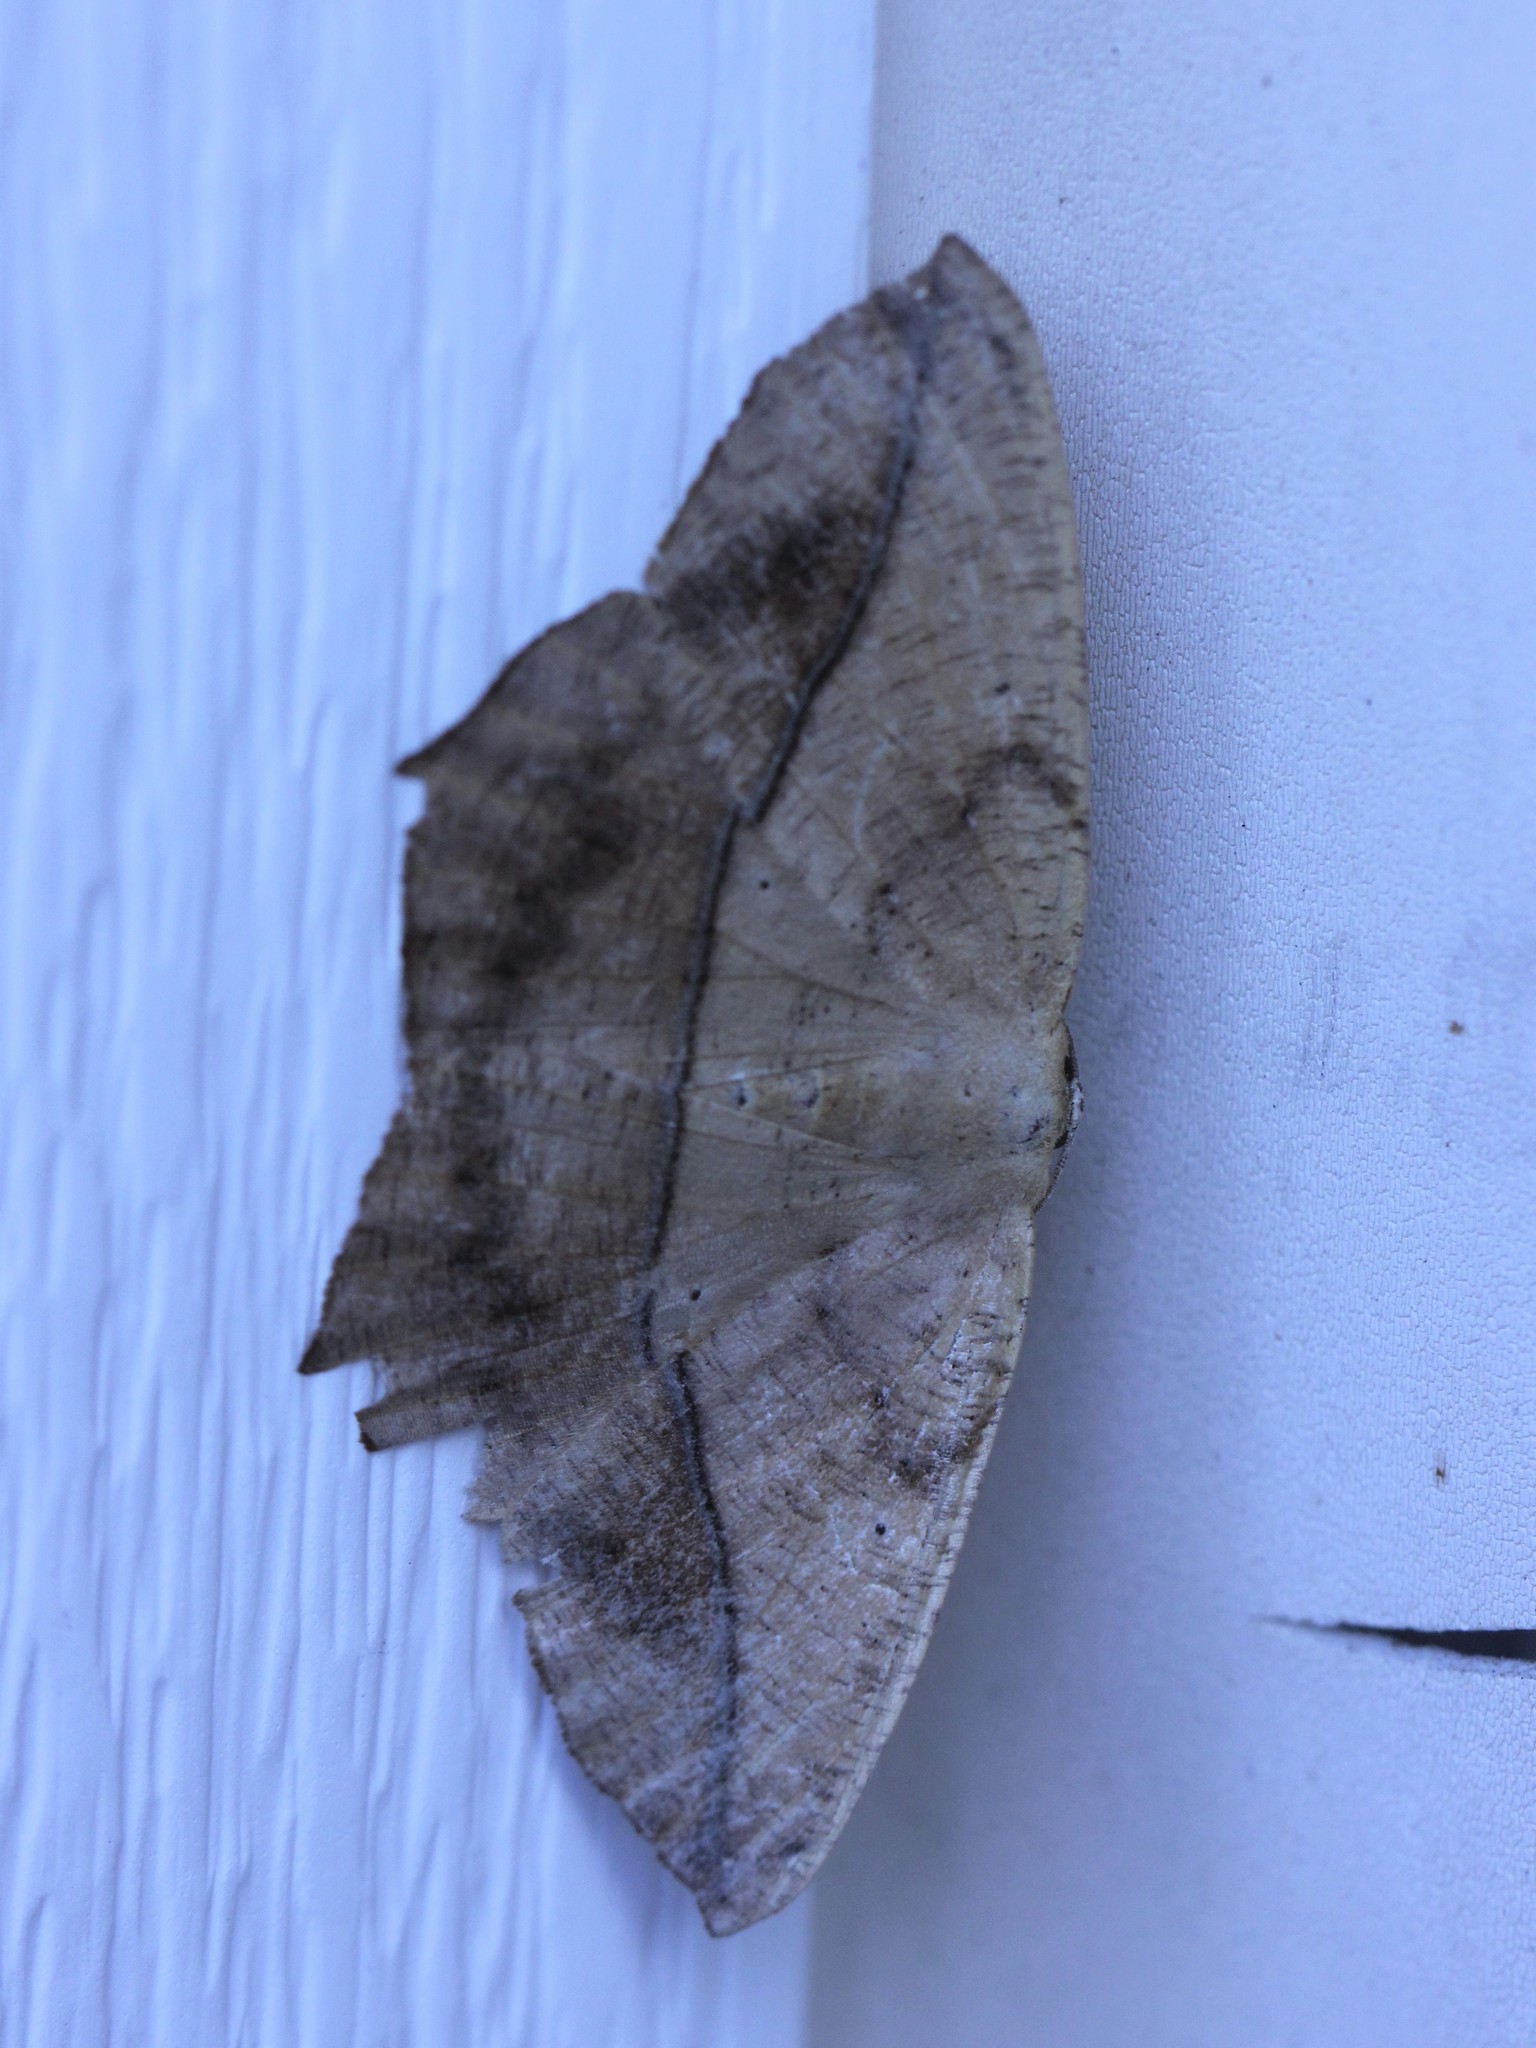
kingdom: Animalia
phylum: Arthropoda
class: Insecta
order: Lepidoptera
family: Geometridae
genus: Prochoerodes
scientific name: Prochoerodes lineola
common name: Large maple spanworm
